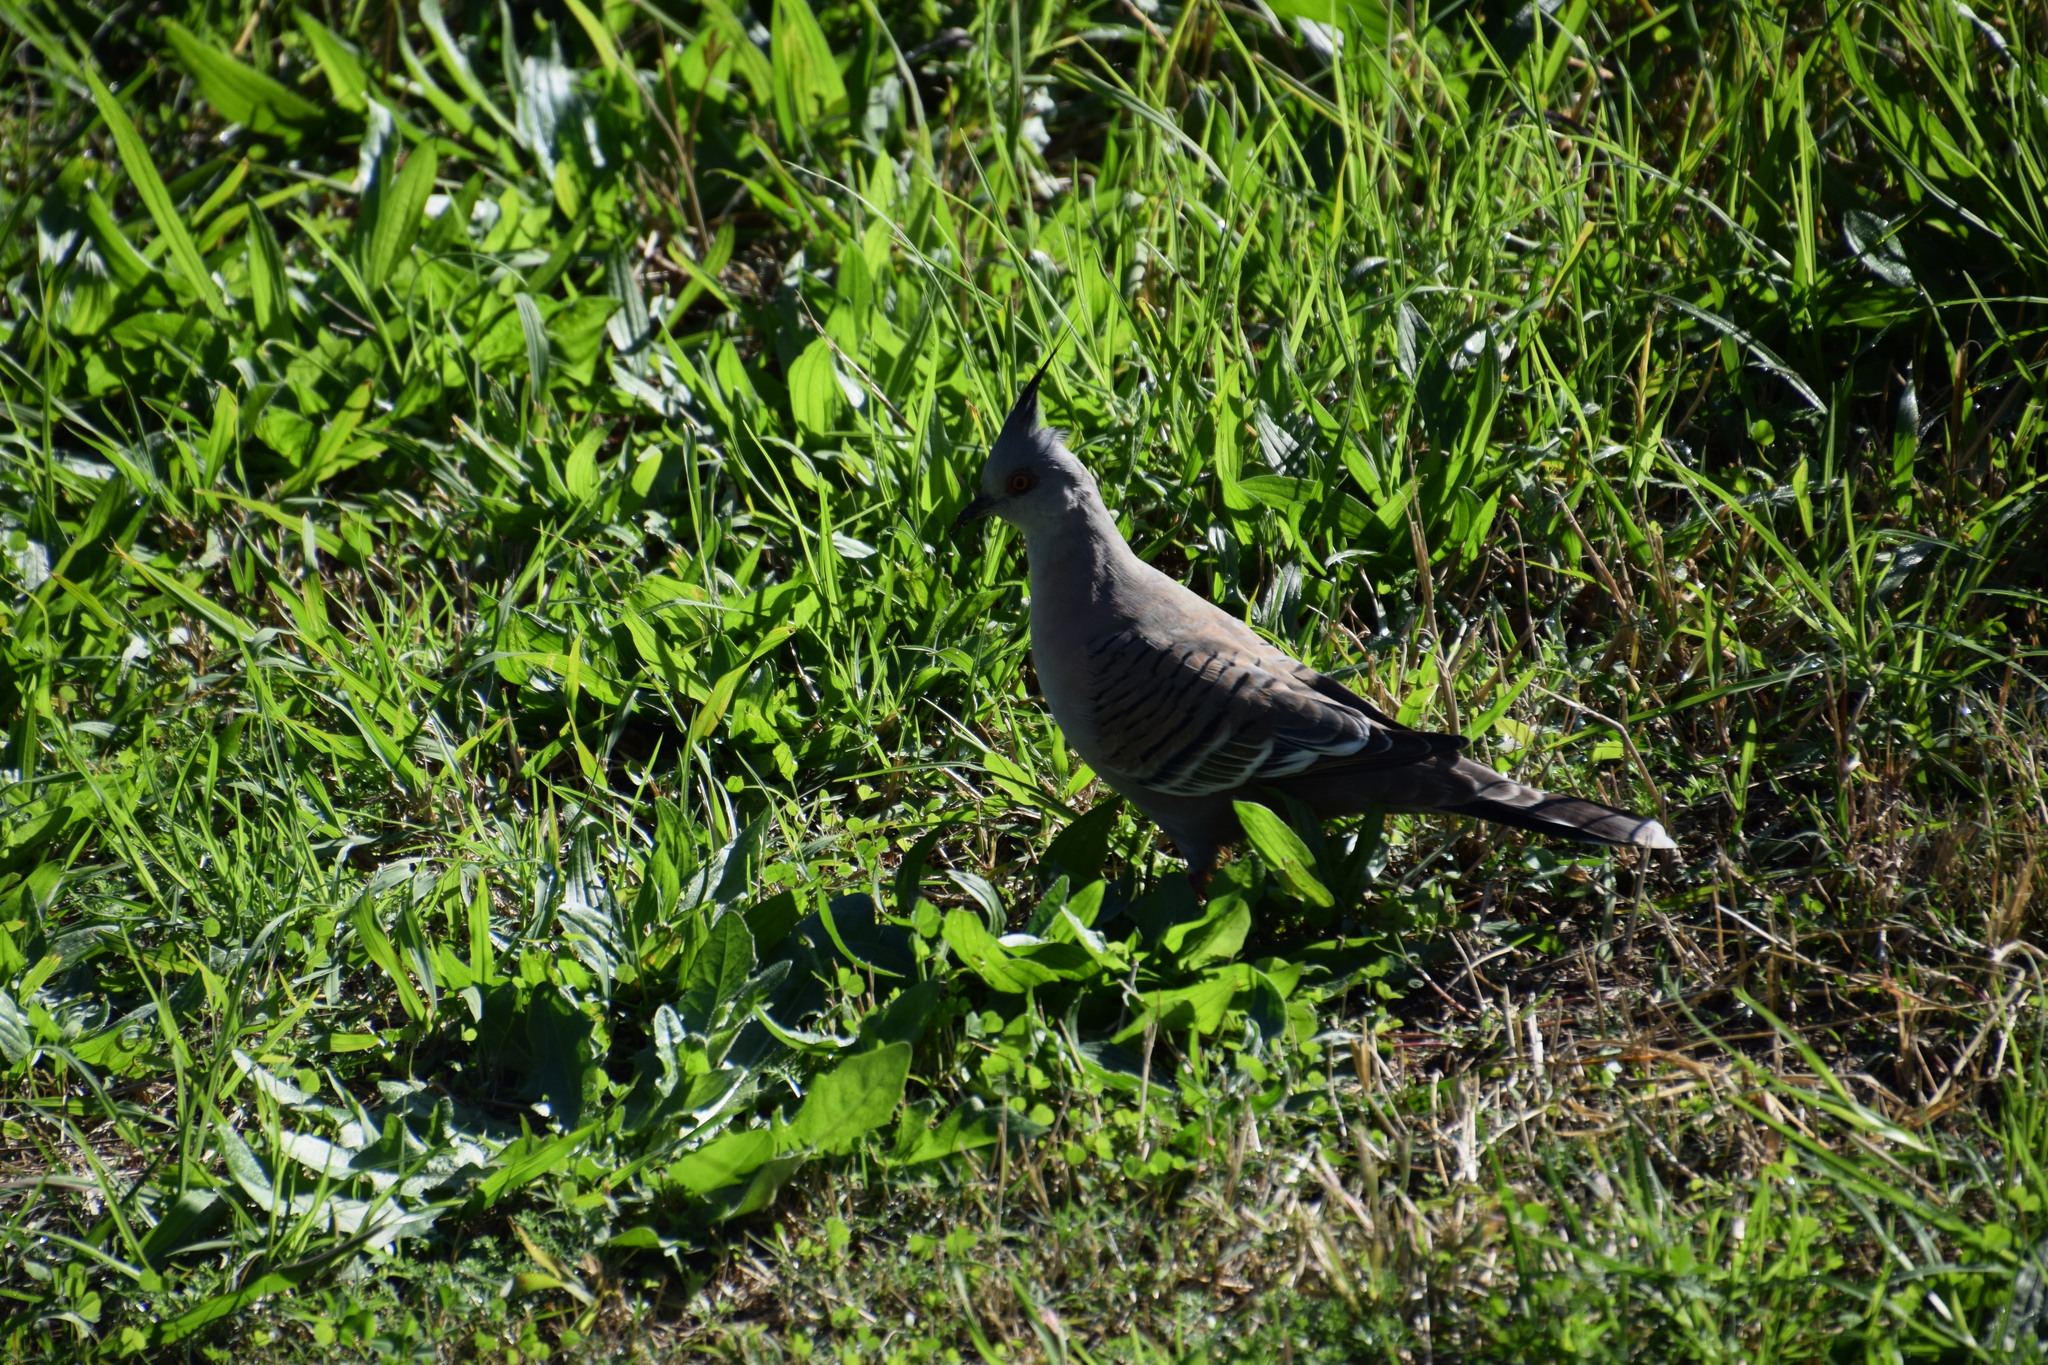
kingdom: Animalia
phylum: Chordata
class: Aves
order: Columbiformes
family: Columbidae
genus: Ocyphaps
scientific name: Ocyphaps lophotes
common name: Crested pigeon
